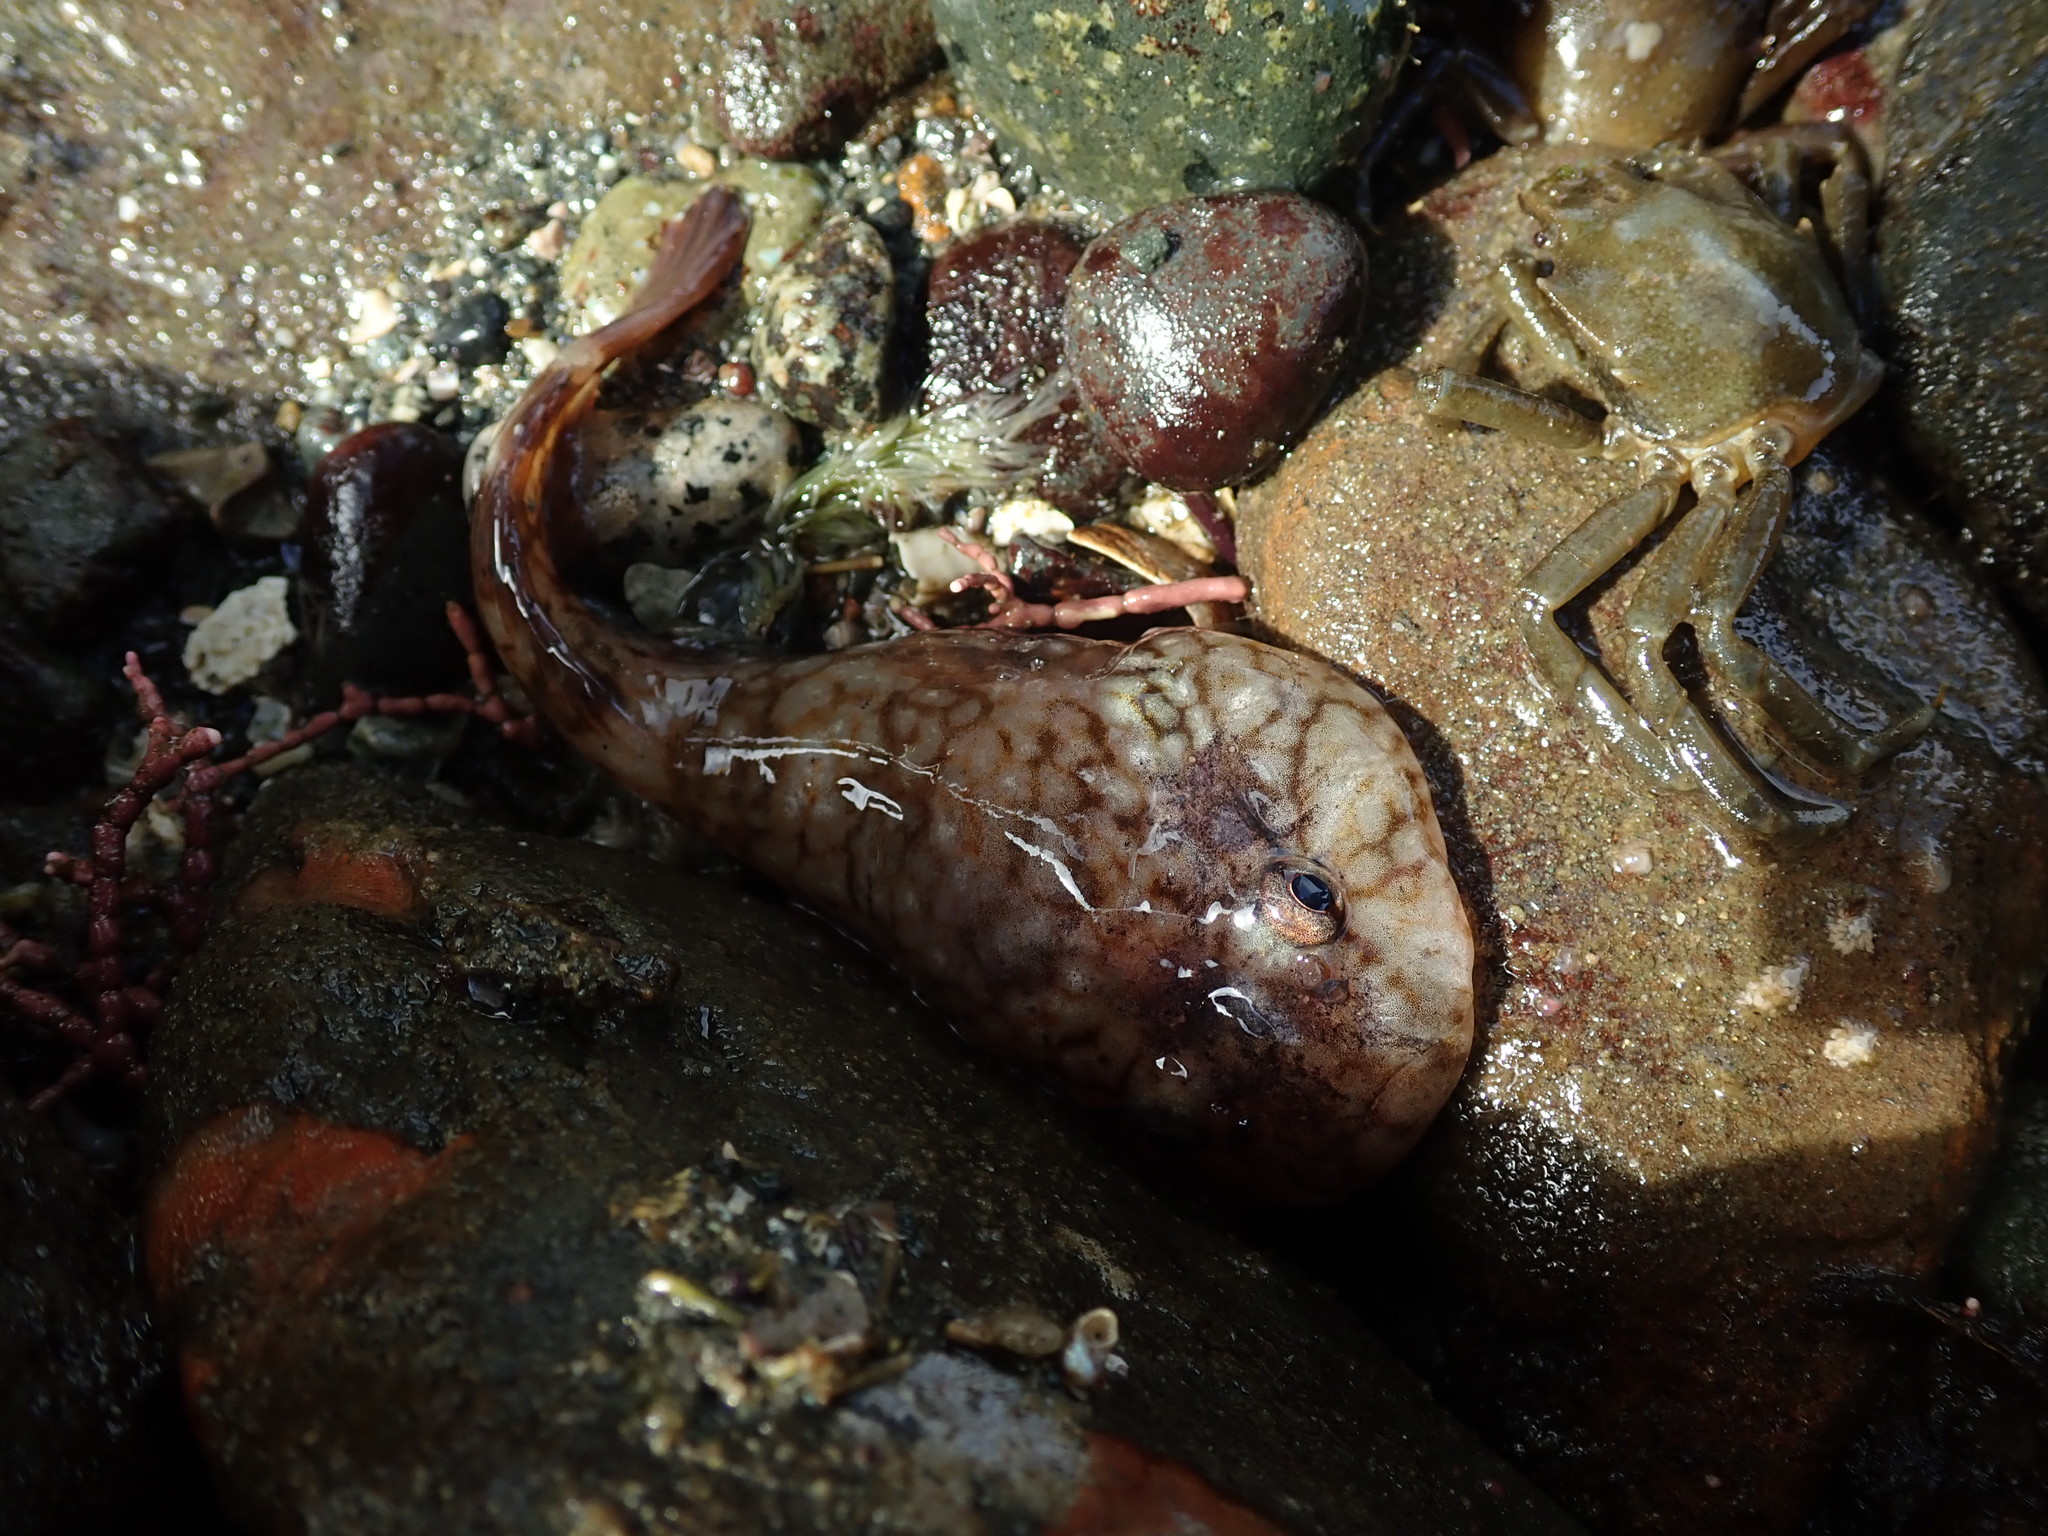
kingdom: Animalia
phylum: Chordata
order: Gobiesociformes
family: Gobiesocidae
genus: Gobiesox
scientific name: Gobiesox maeandricus
